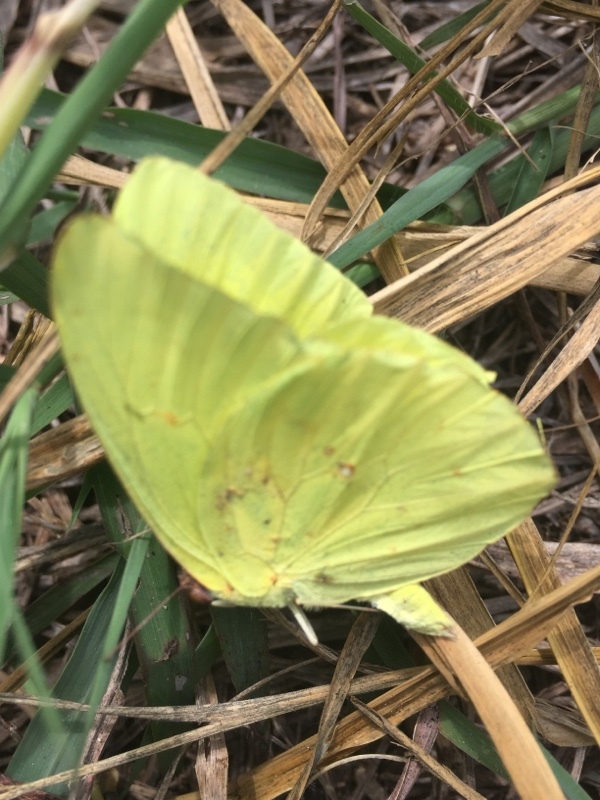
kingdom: Animalia
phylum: Arthropoda
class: Insecta
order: Lepidoptera
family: Pieridae
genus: Phoebis
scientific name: Phoebis sennae
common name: Cloudless sulphur
